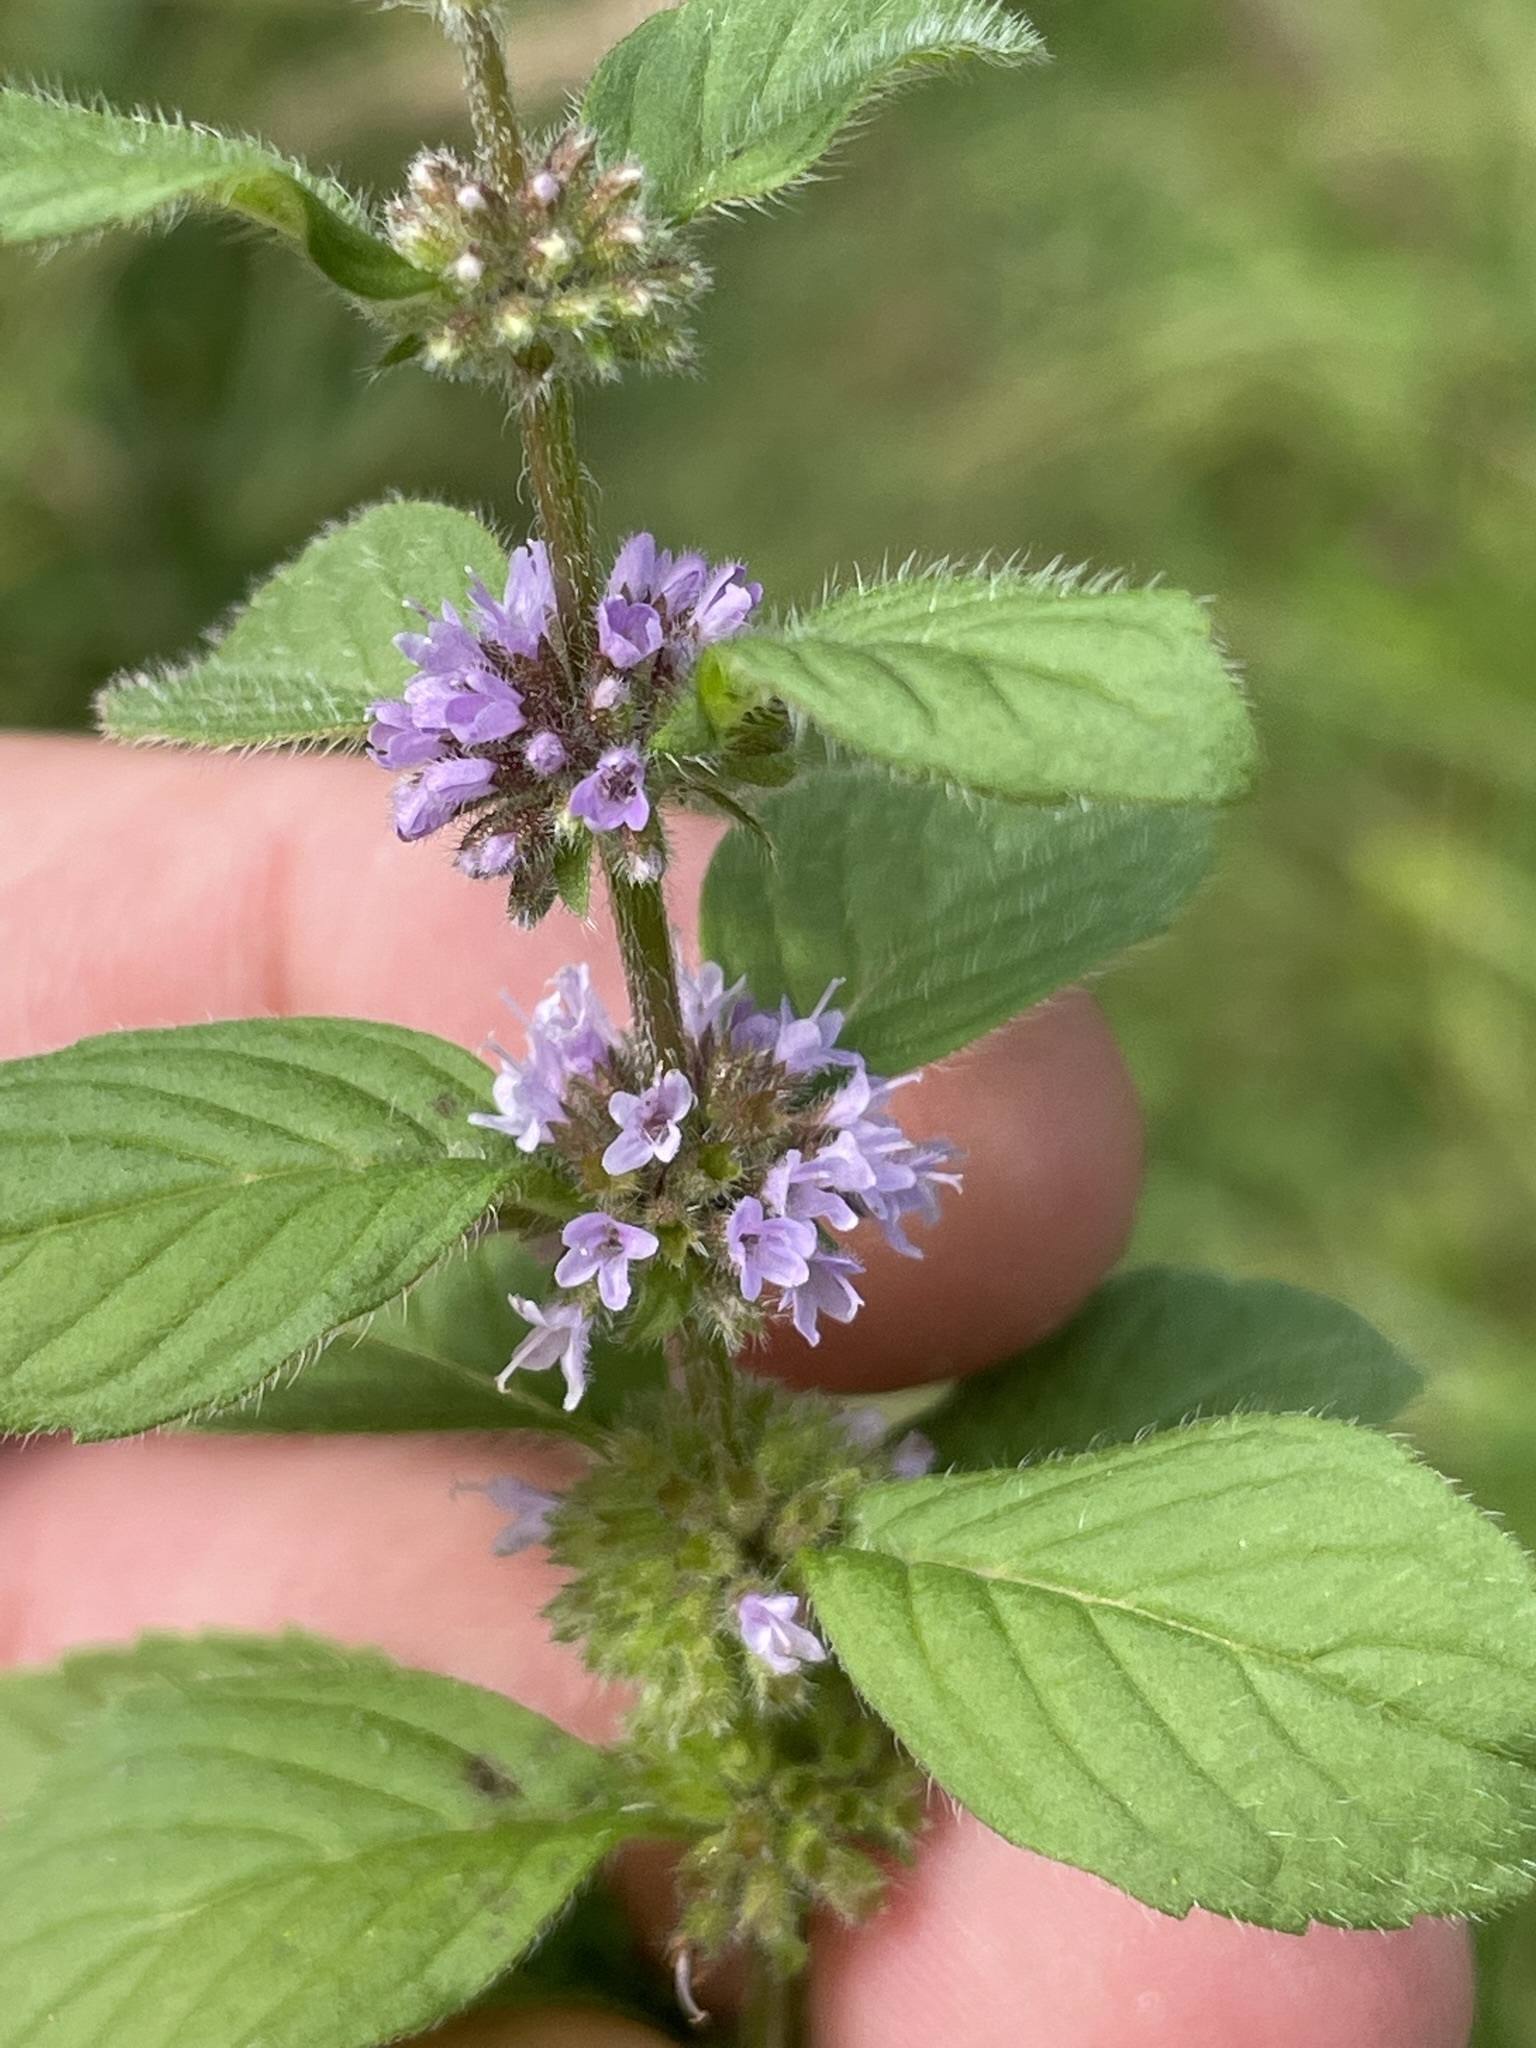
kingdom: Plantae
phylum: Tracheophyta
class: Magnoliopsida
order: Lamiales
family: Lamiaceae
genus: Mentha
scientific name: Mentha arvensis
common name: Corn mint
